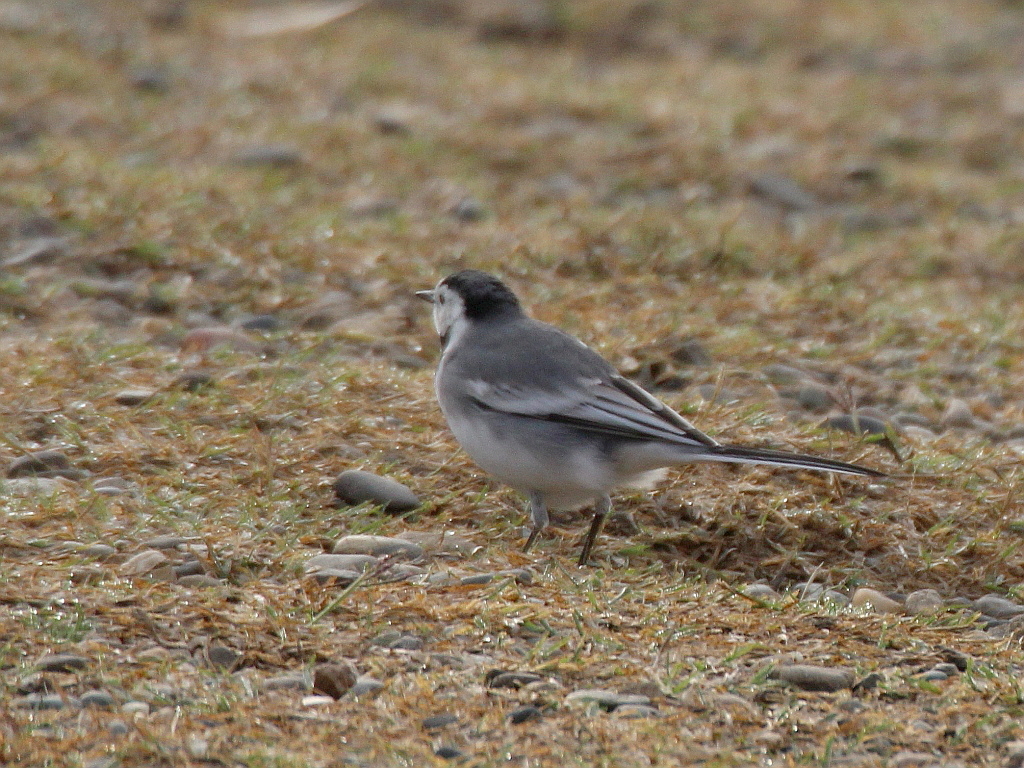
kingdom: Animalia
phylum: Chordata
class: Aves
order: Passeriformes
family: Motacillidae
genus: Motacilla
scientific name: Motacilla alba
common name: White wagtail
